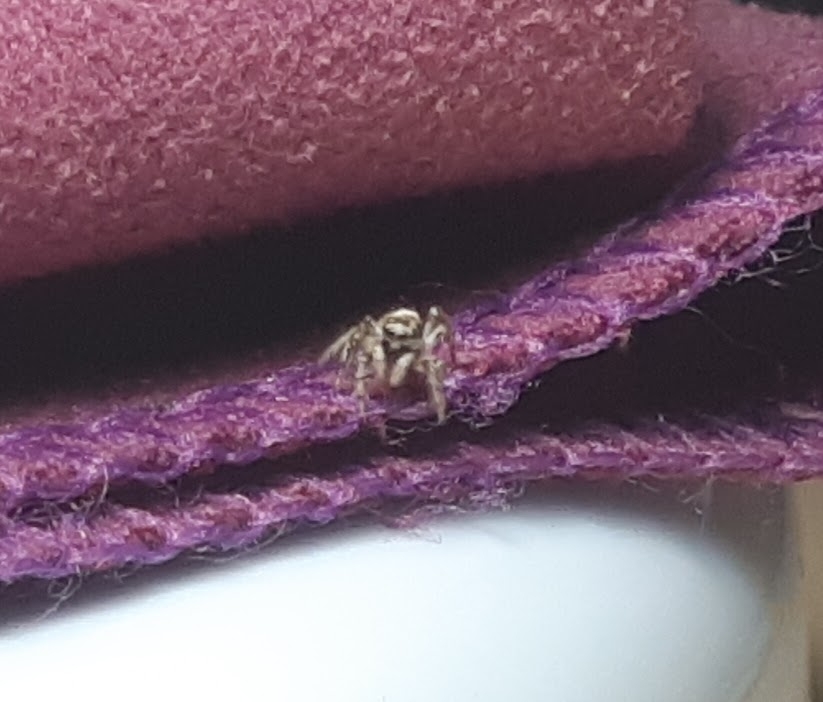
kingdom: Animalia
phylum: Arthropoda
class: Arachnida
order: Araneae
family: Salticidae
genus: Salticus
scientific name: Salticus scenicus
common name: Zebra jumper
